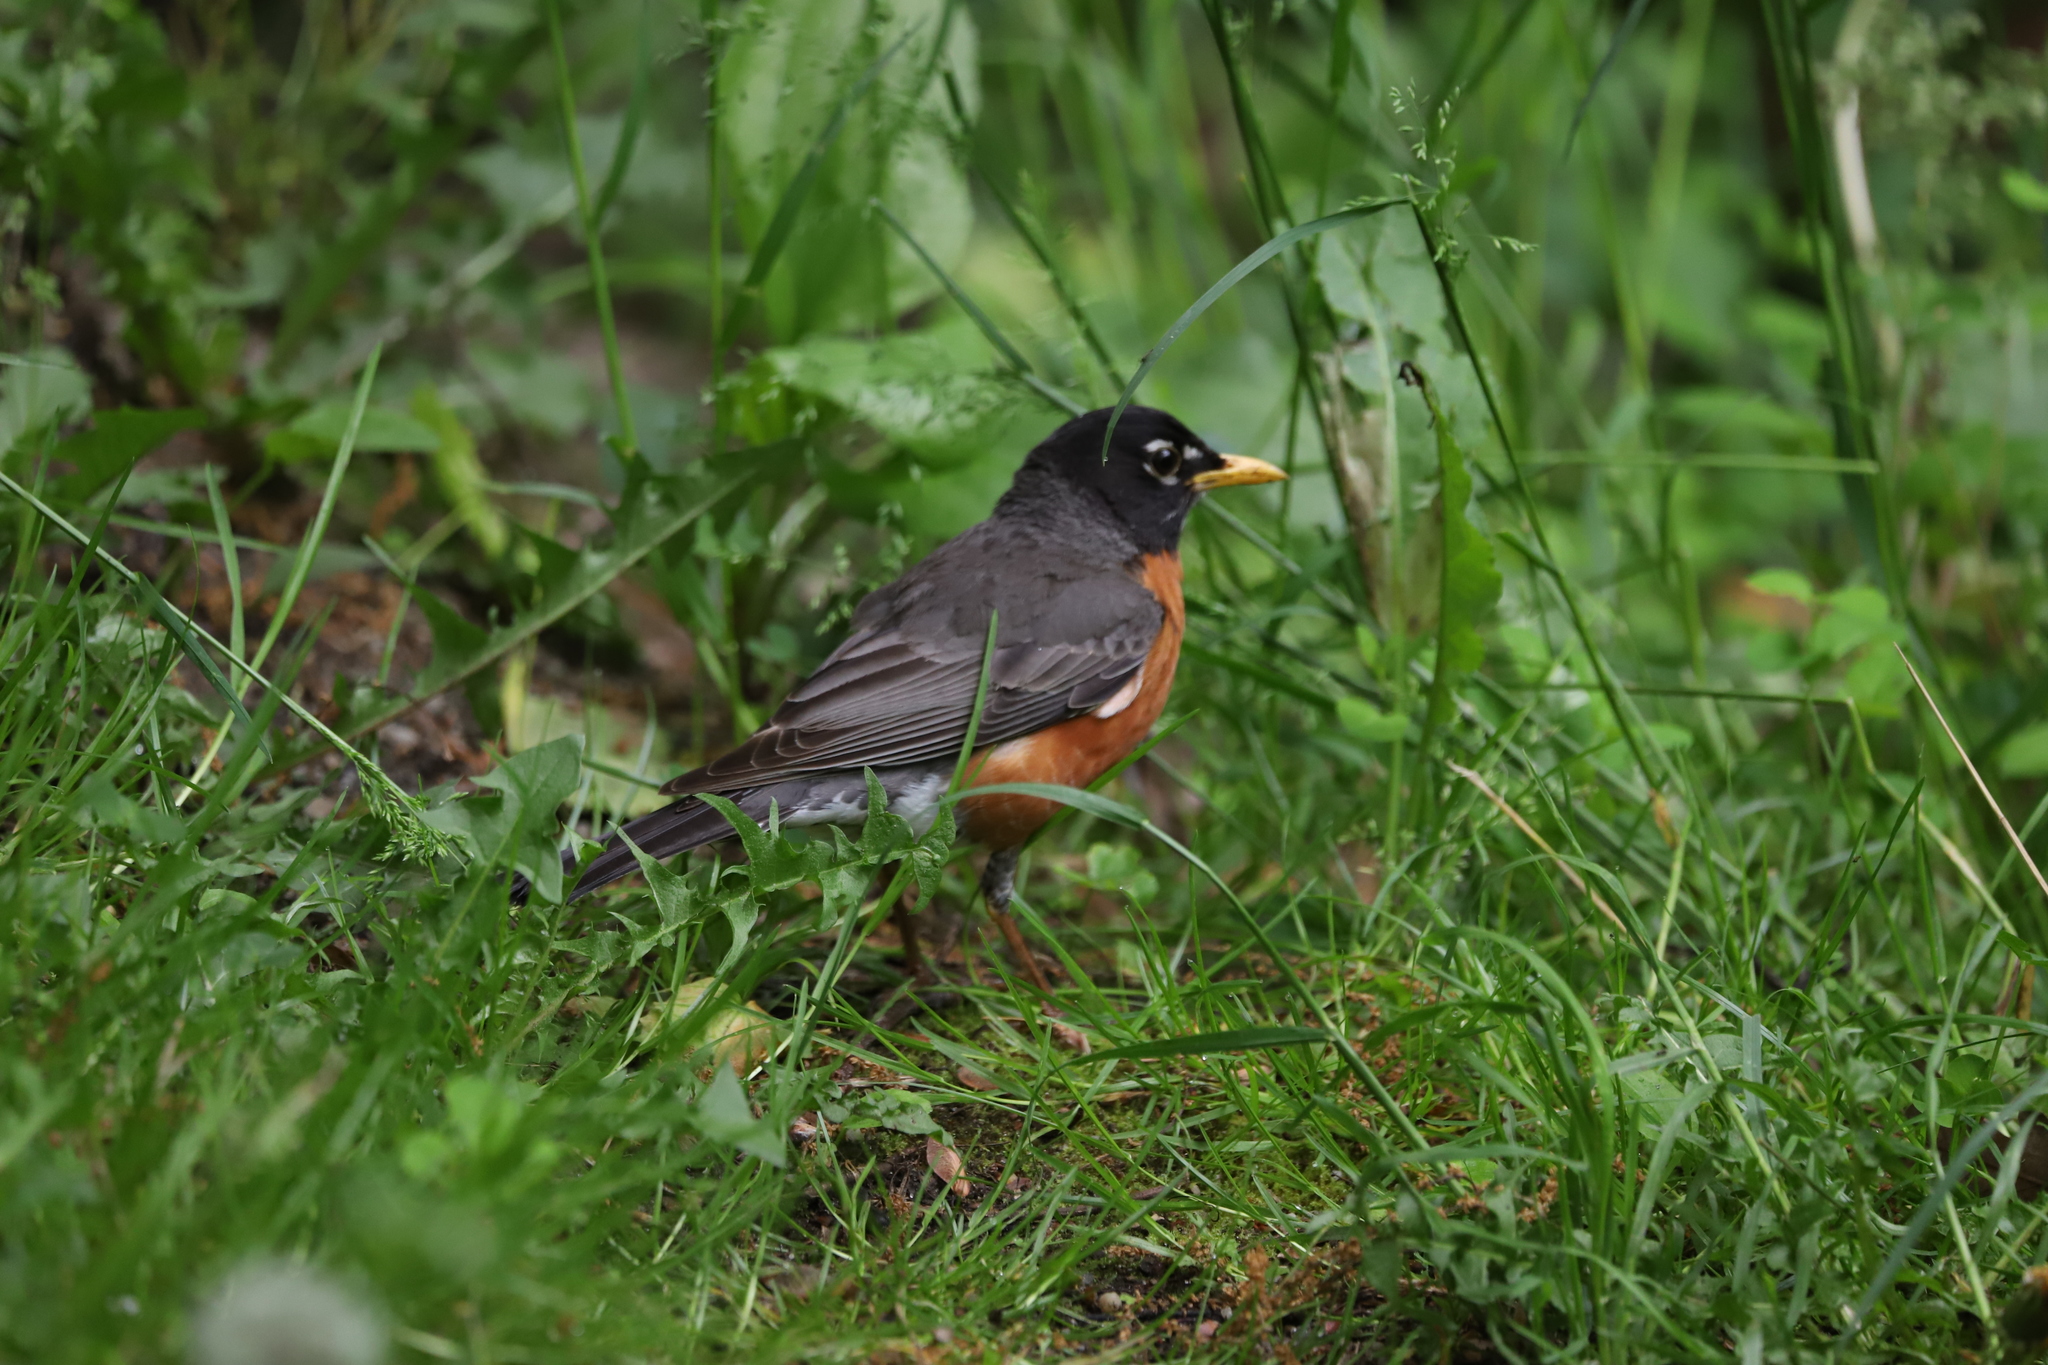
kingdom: Animalia
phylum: Chordata
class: Aves
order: Passeriformes
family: Turdidae
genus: Turdus
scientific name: Turdus migratorius
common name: American robin
